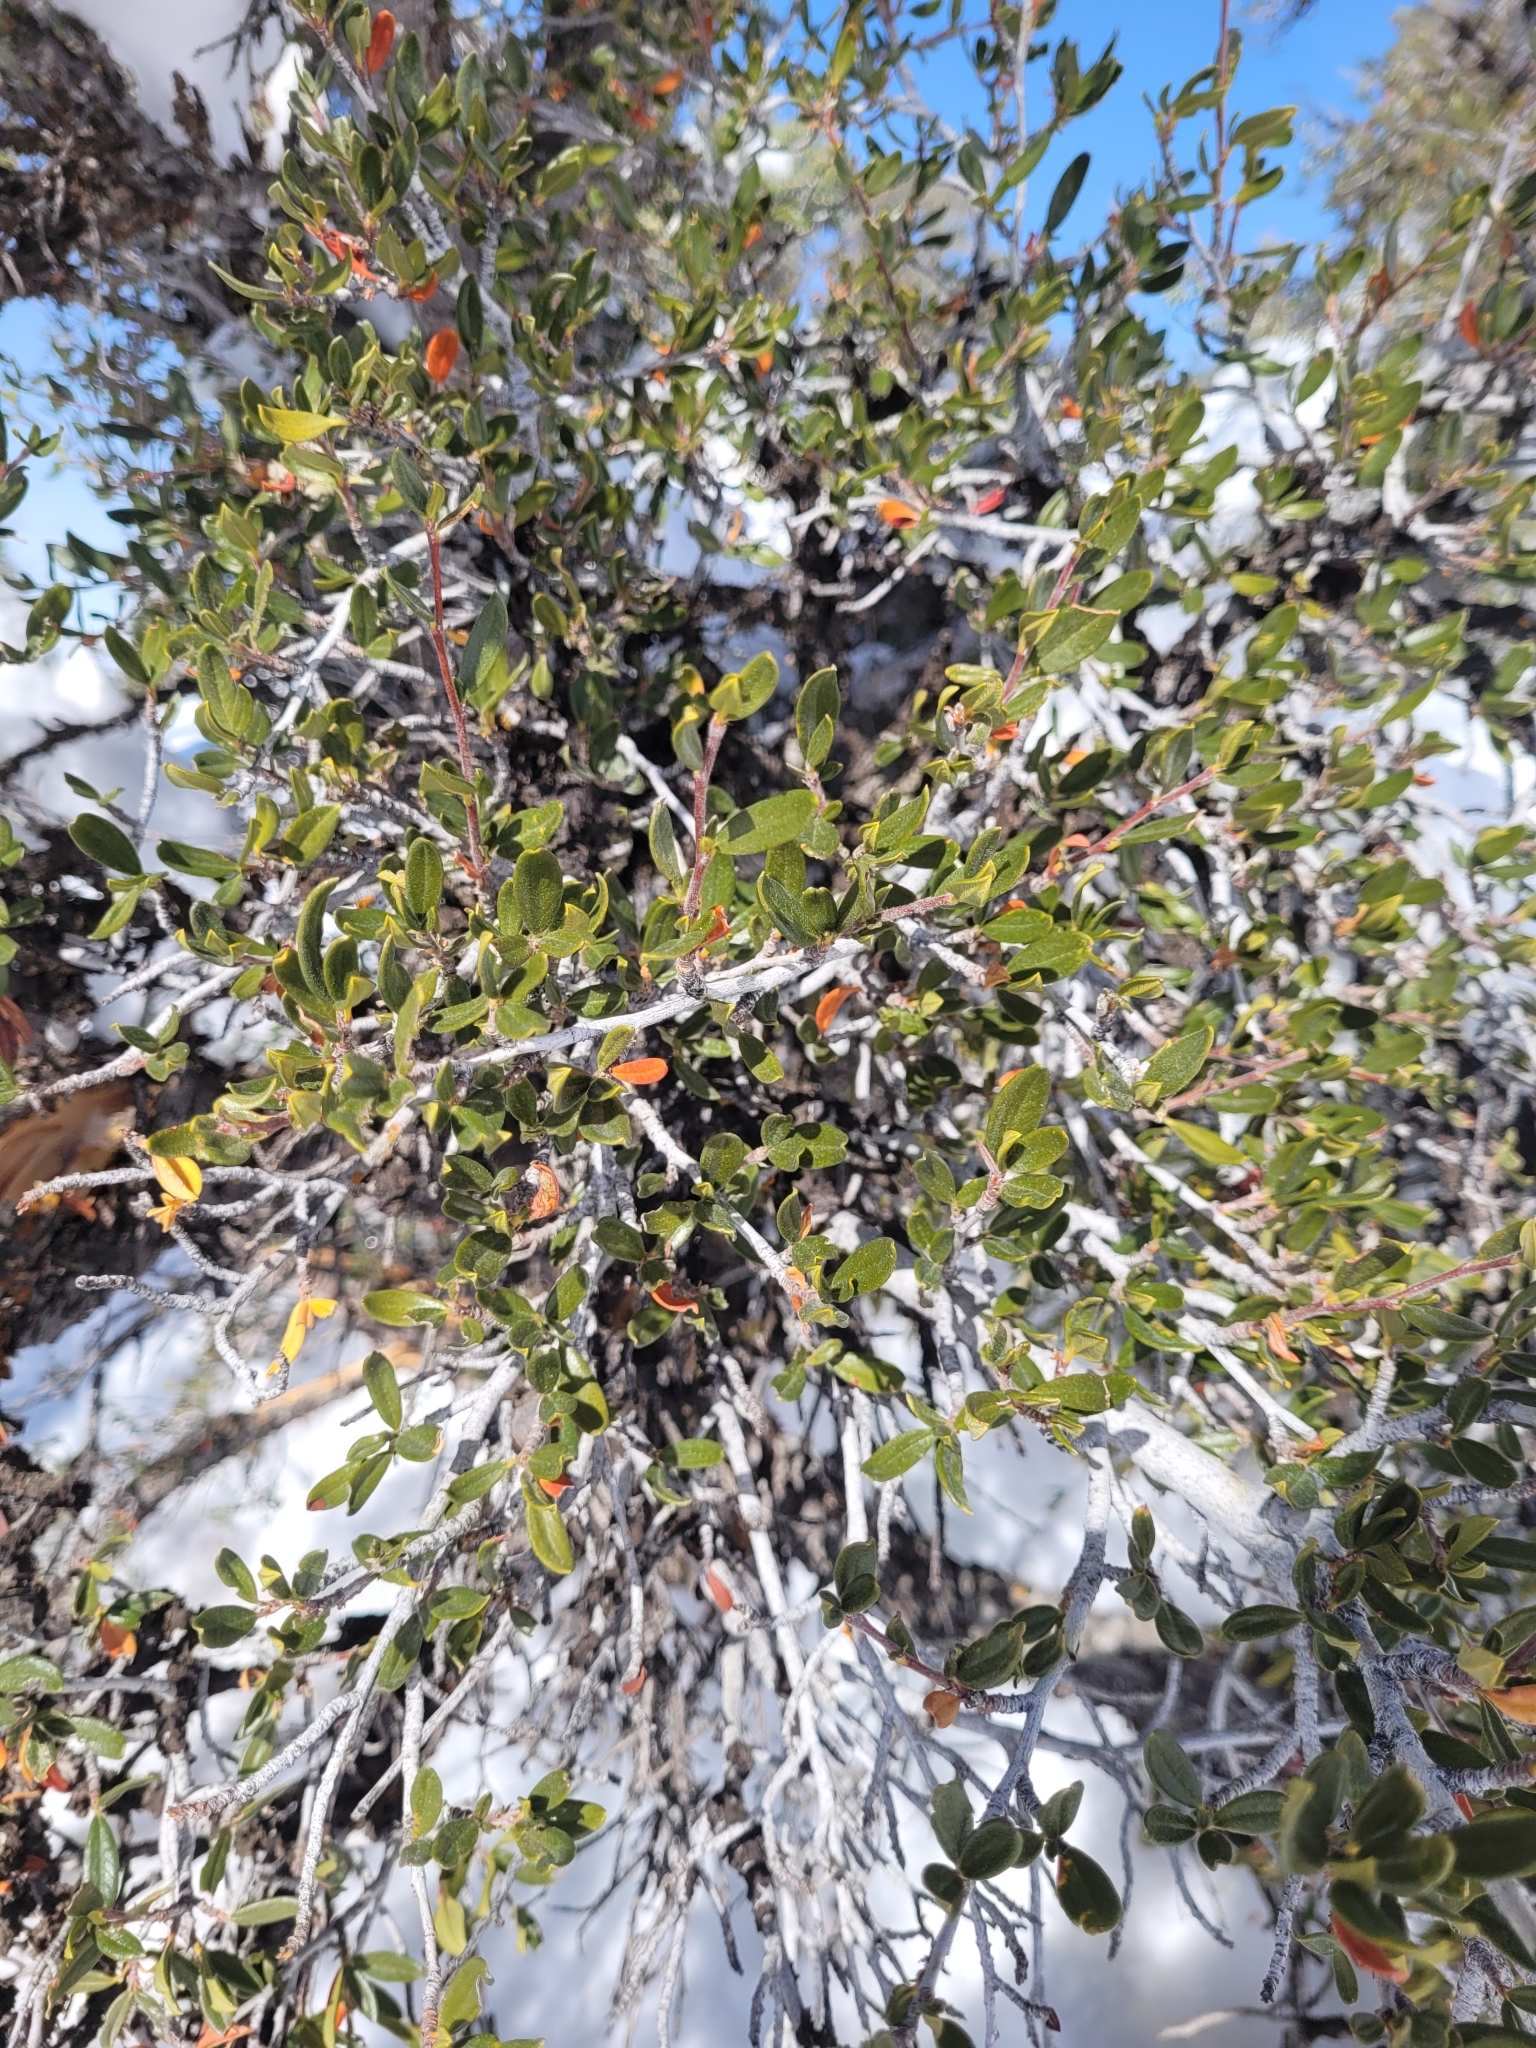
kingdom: Plantae
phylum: Tracheophyta
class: Magnoliopsida
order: Rosales
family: Rosaceae
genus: Cercocarpus
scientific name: Cercocarpus ledifolius
